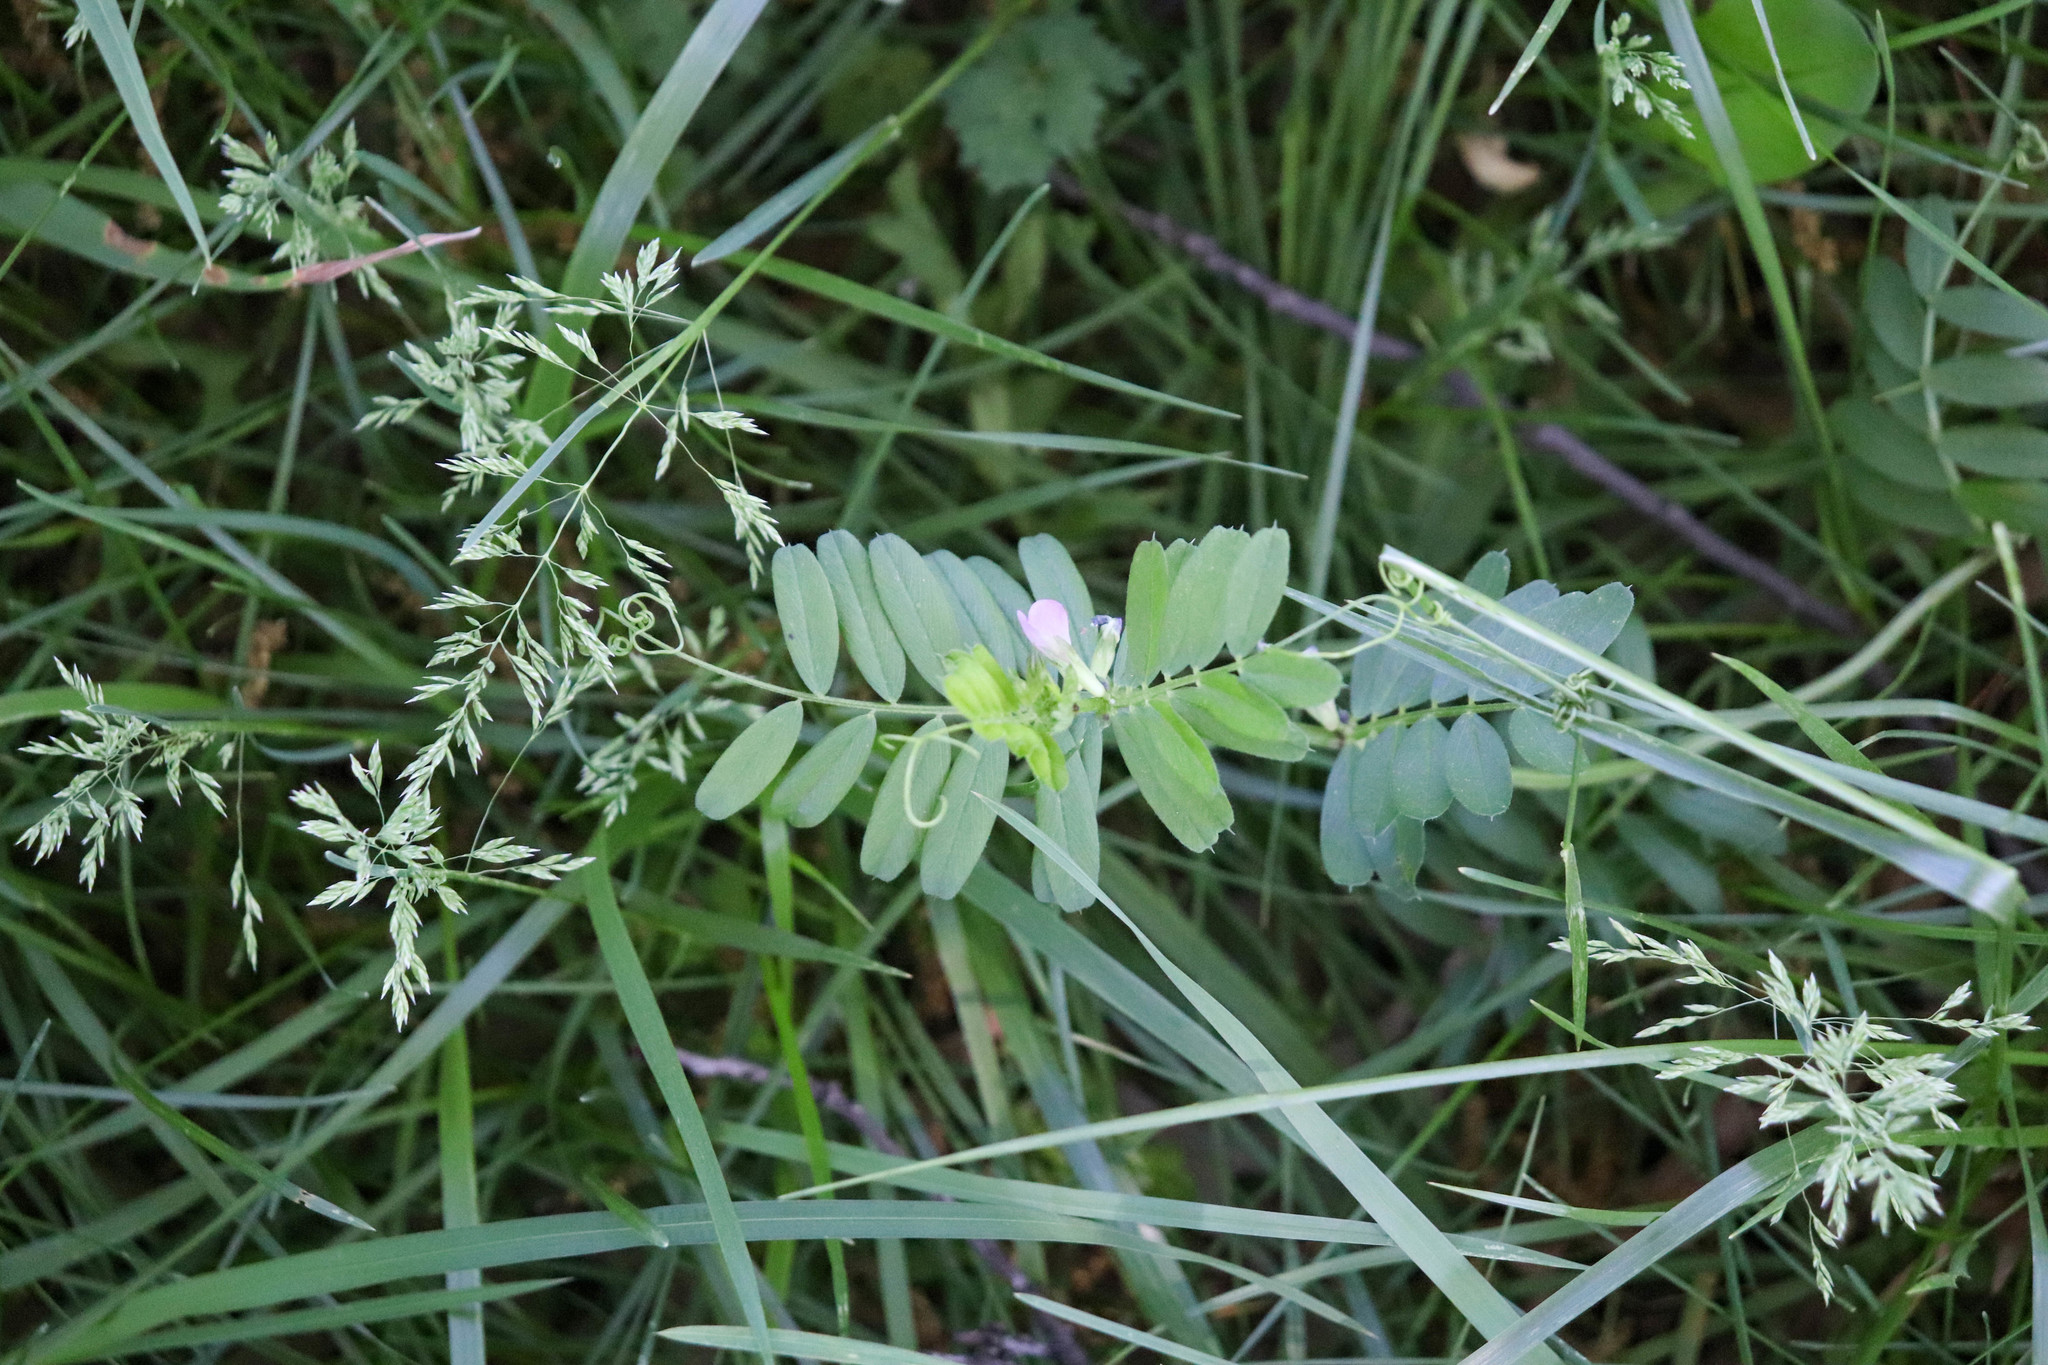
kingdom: Plantae
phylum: Tracheophyta
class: Magnoliopsida
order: Fabales
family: Fabaceae
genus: Vicia
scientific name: Vicia sativa
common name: Garden vetch
